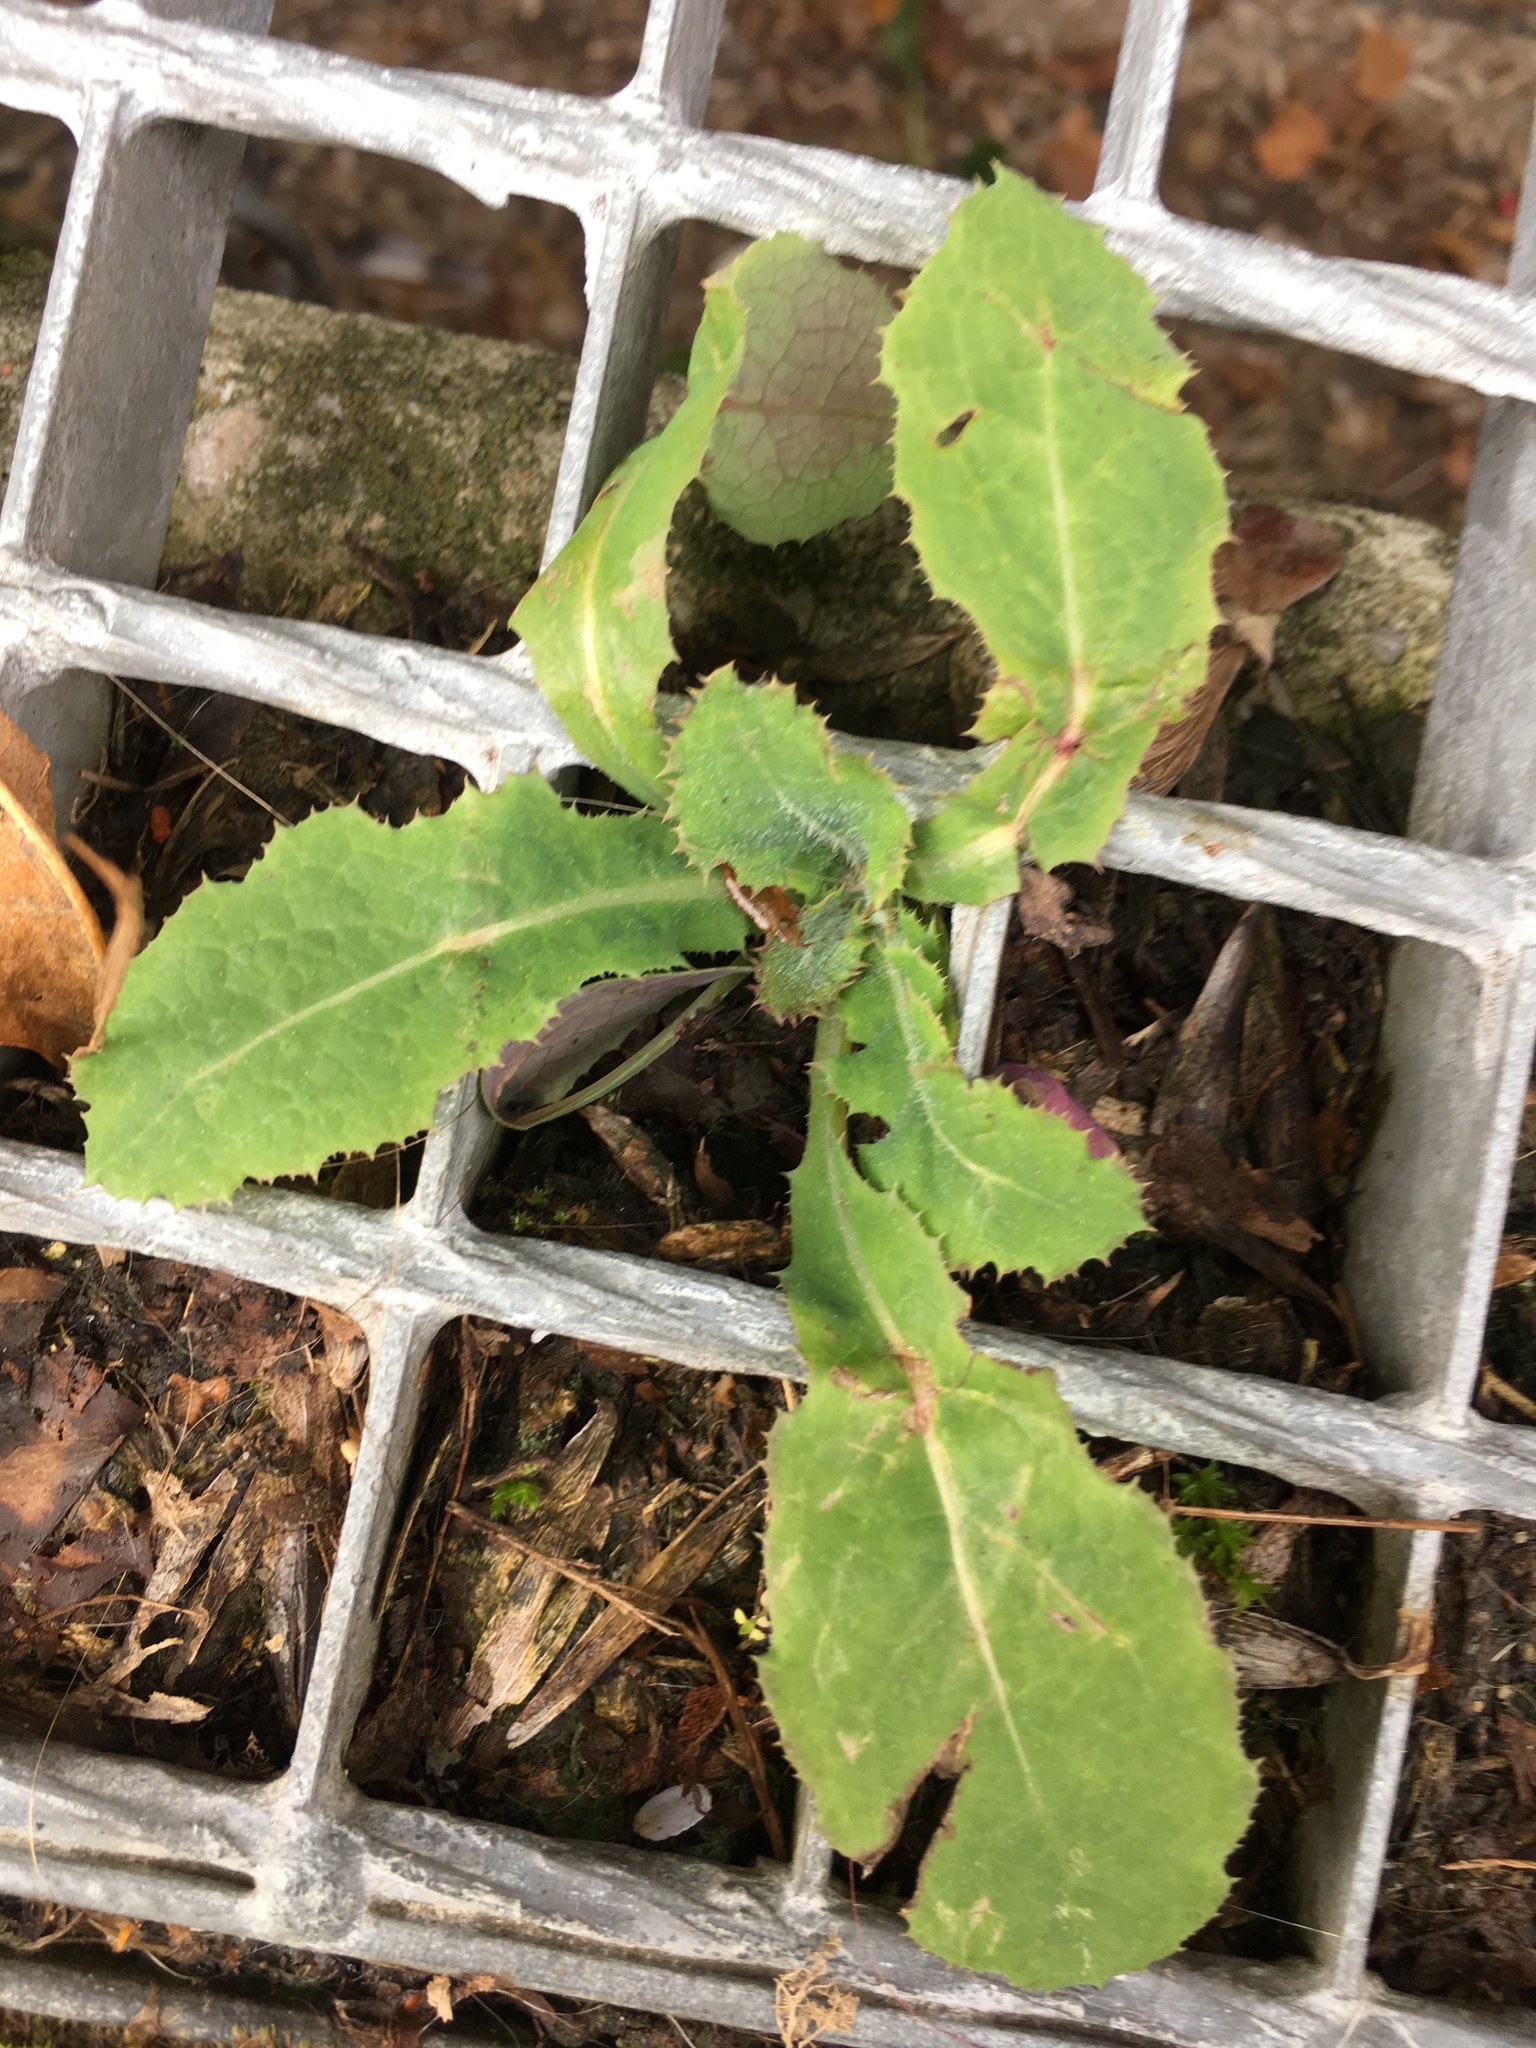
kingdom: Plantae
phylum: Tracheophyta
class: Magnoliopsida
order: Asterales
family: Asteraceae
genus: Sonchus
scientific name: Sonchus oleraceus
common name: Common sowthistle
